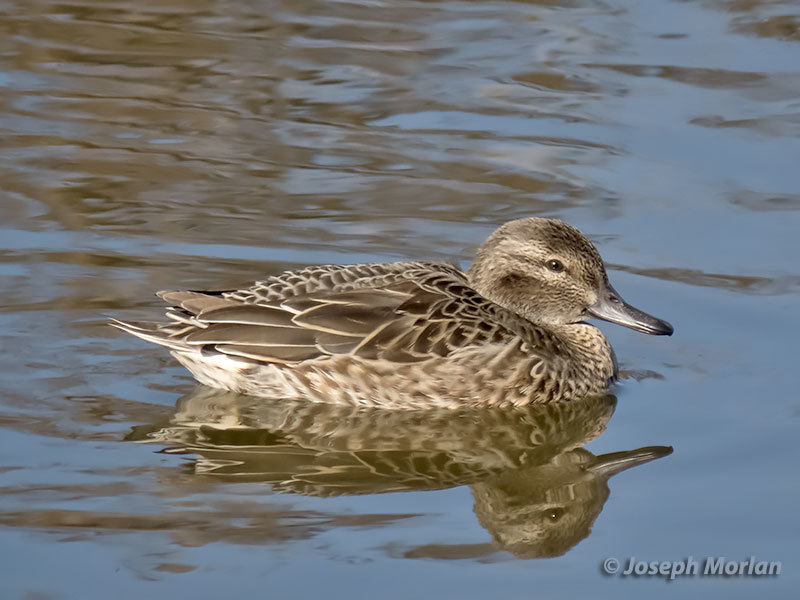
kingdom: Animalia
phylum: Chordata
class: Aves
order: Anseriformes
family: Anatidae
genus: Anas
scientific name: Anas crecca
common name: Eurasian teal
